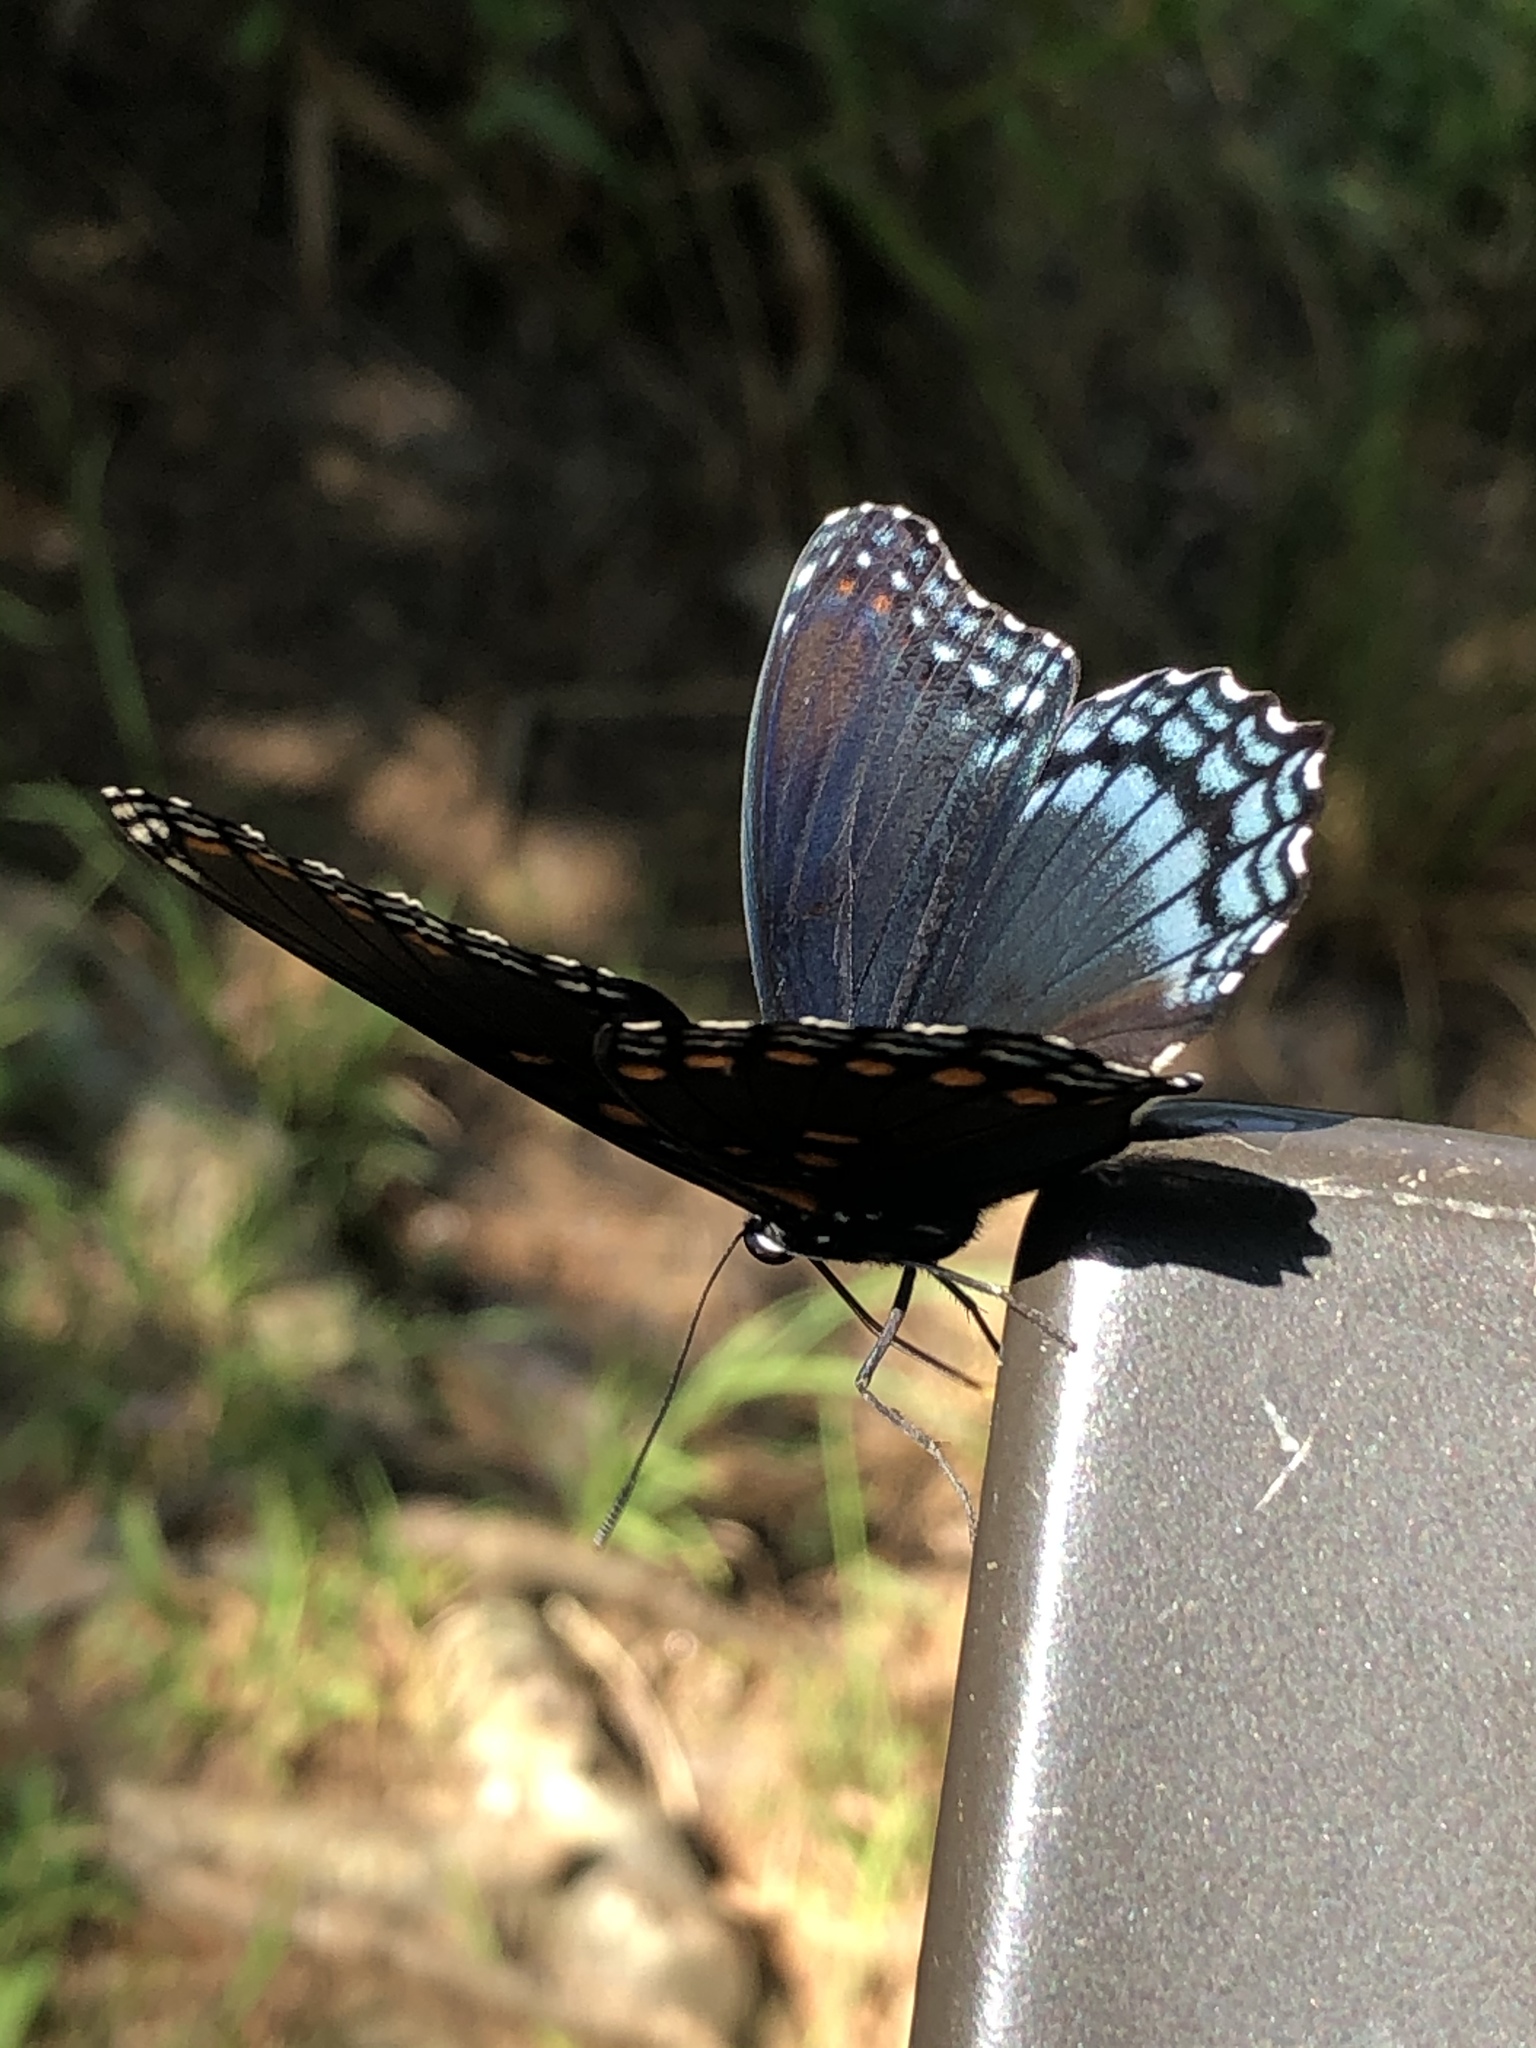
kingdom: Animalia
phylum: Arthropoda
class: Insecta
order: Lepidoptera
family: Nymphalidae
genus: Limenitis
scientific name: Limenitis astyanax
